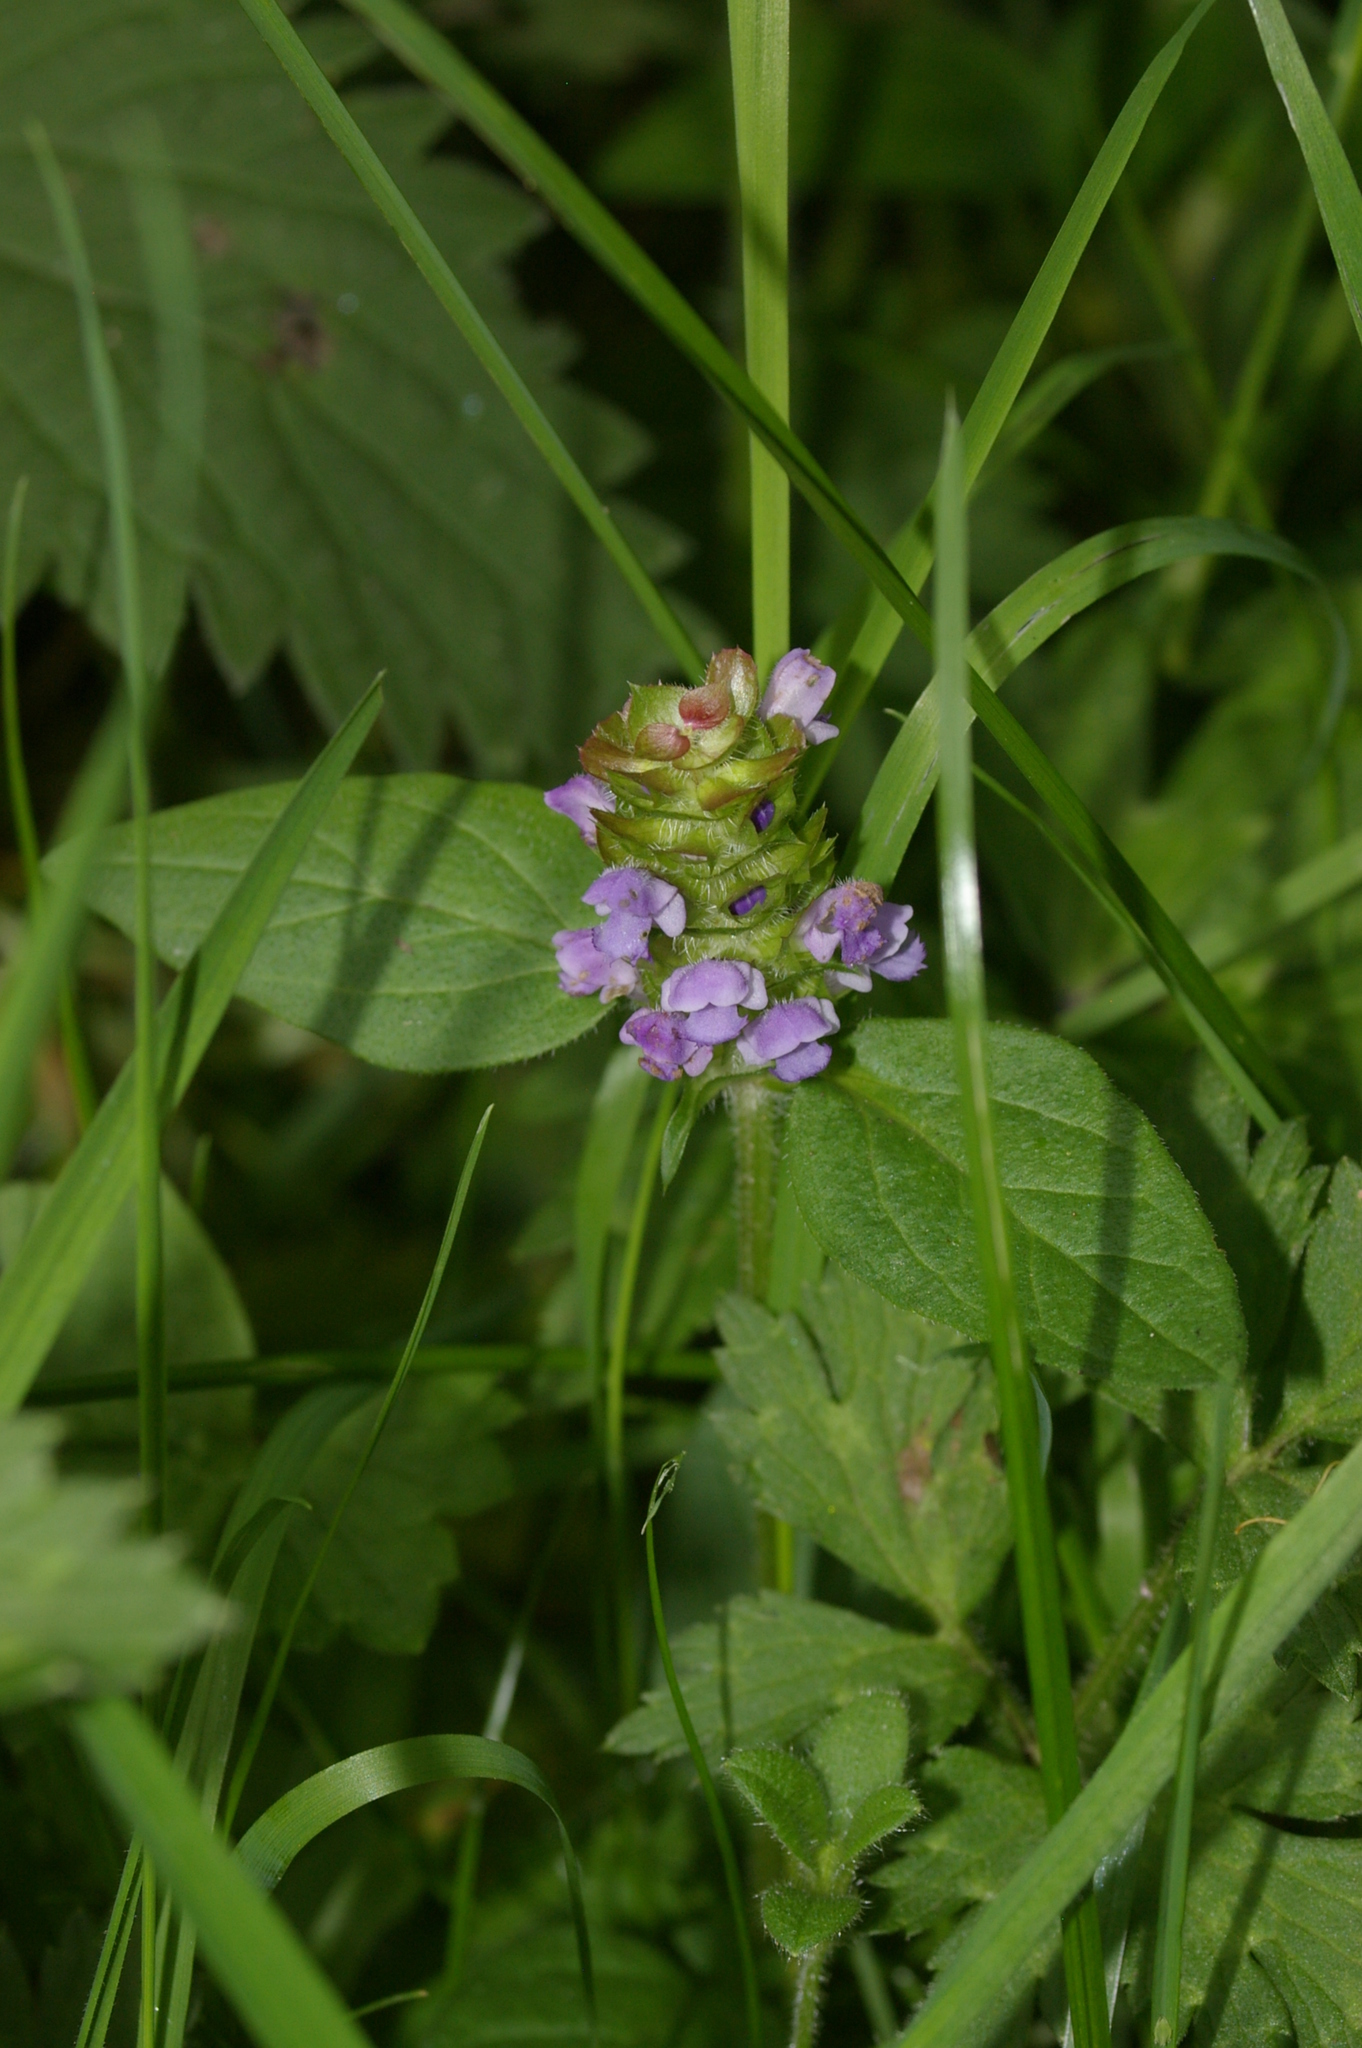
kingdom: Plantae
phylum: Tracheophyta
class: Magnoliopsida
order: Lamiales
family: Lamiaceae
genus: Prunella
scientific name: Prunella vulgaris
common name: Heal-all
